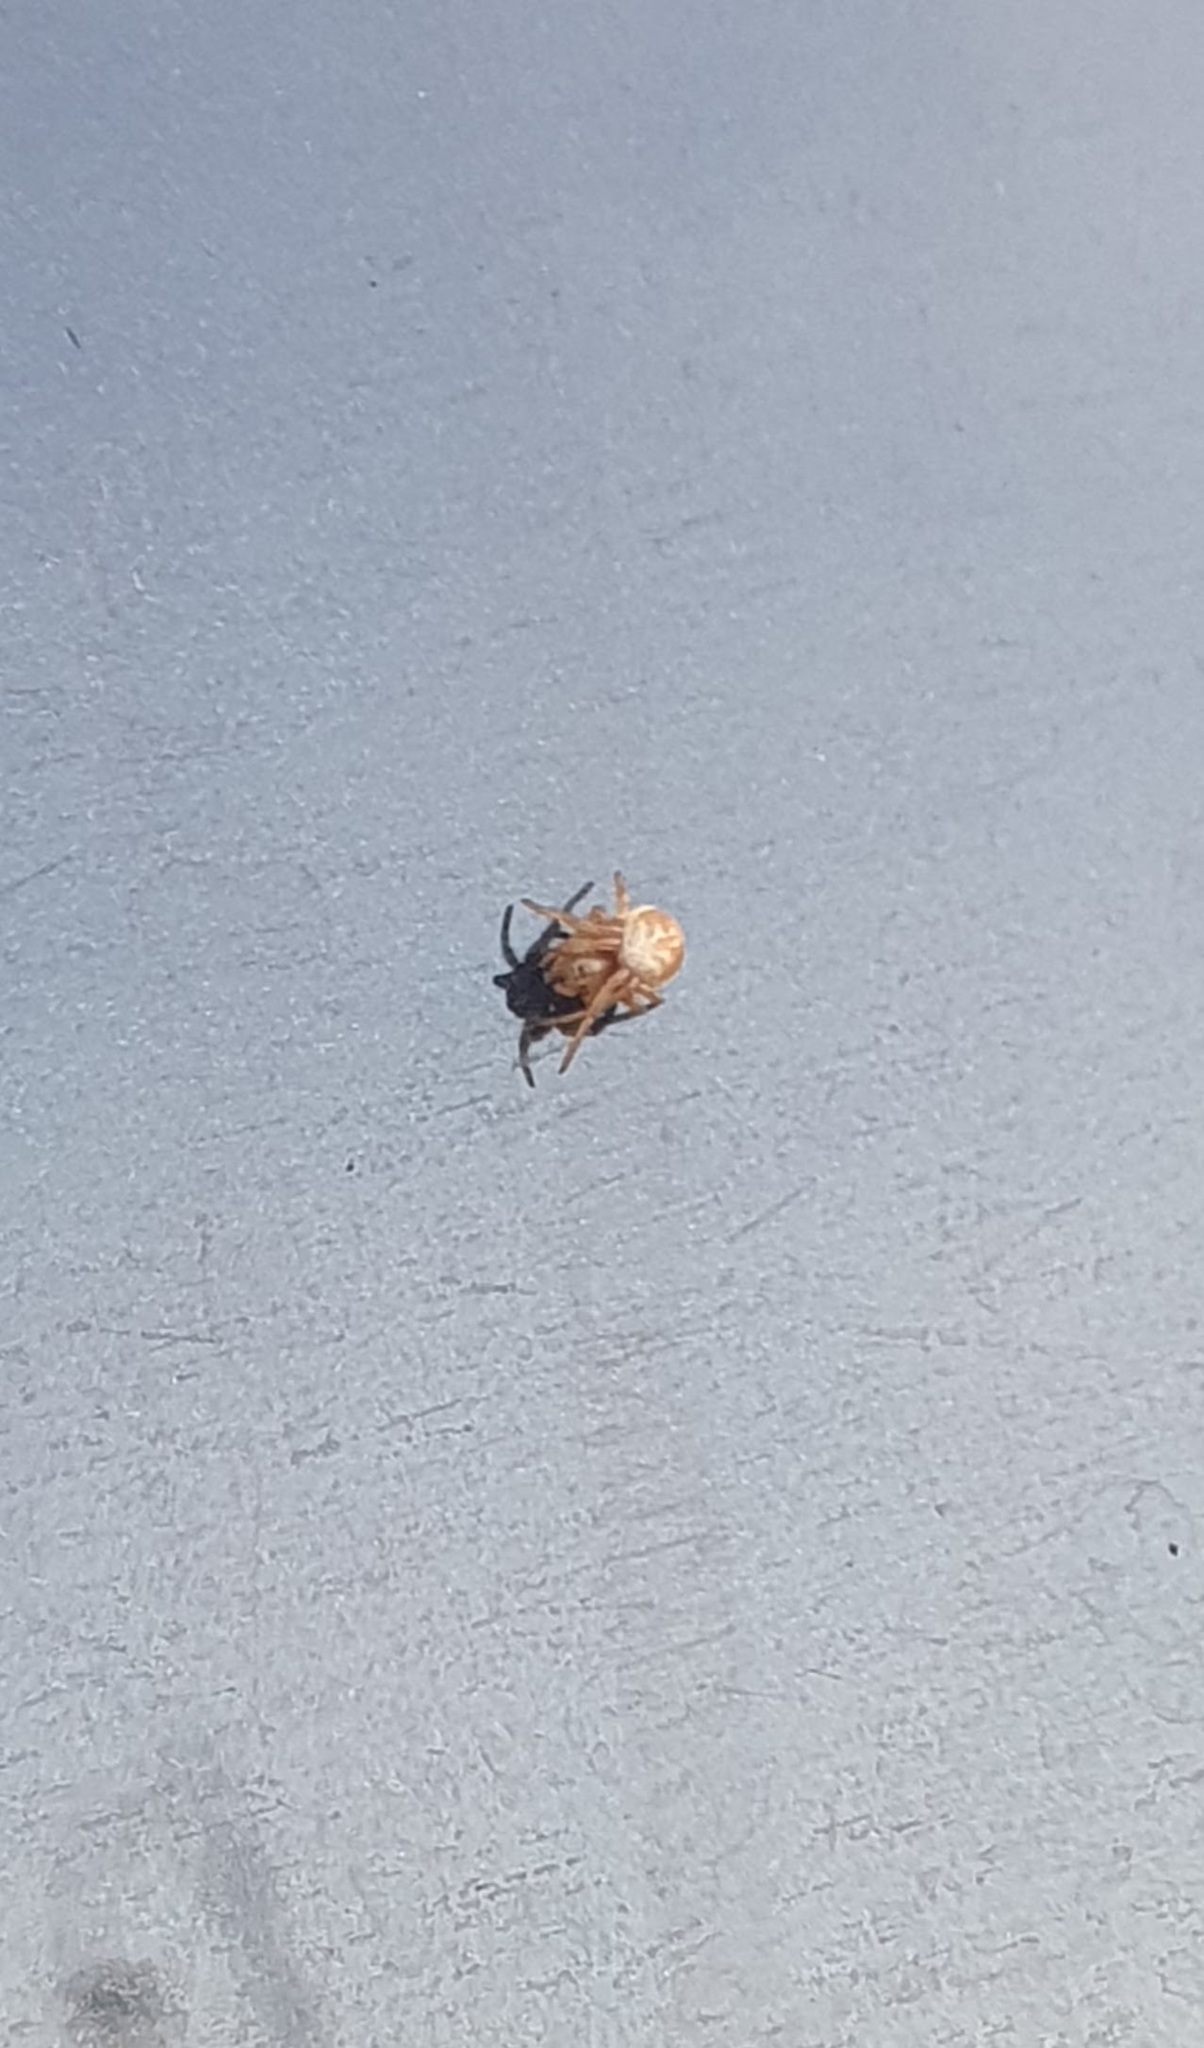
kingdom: Animalia
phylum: Arthropoda
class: Arachnida
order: Araneae
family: Araneidae
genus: Araniella
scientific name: Araniella displicata
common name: Sixspotted orb weaver
